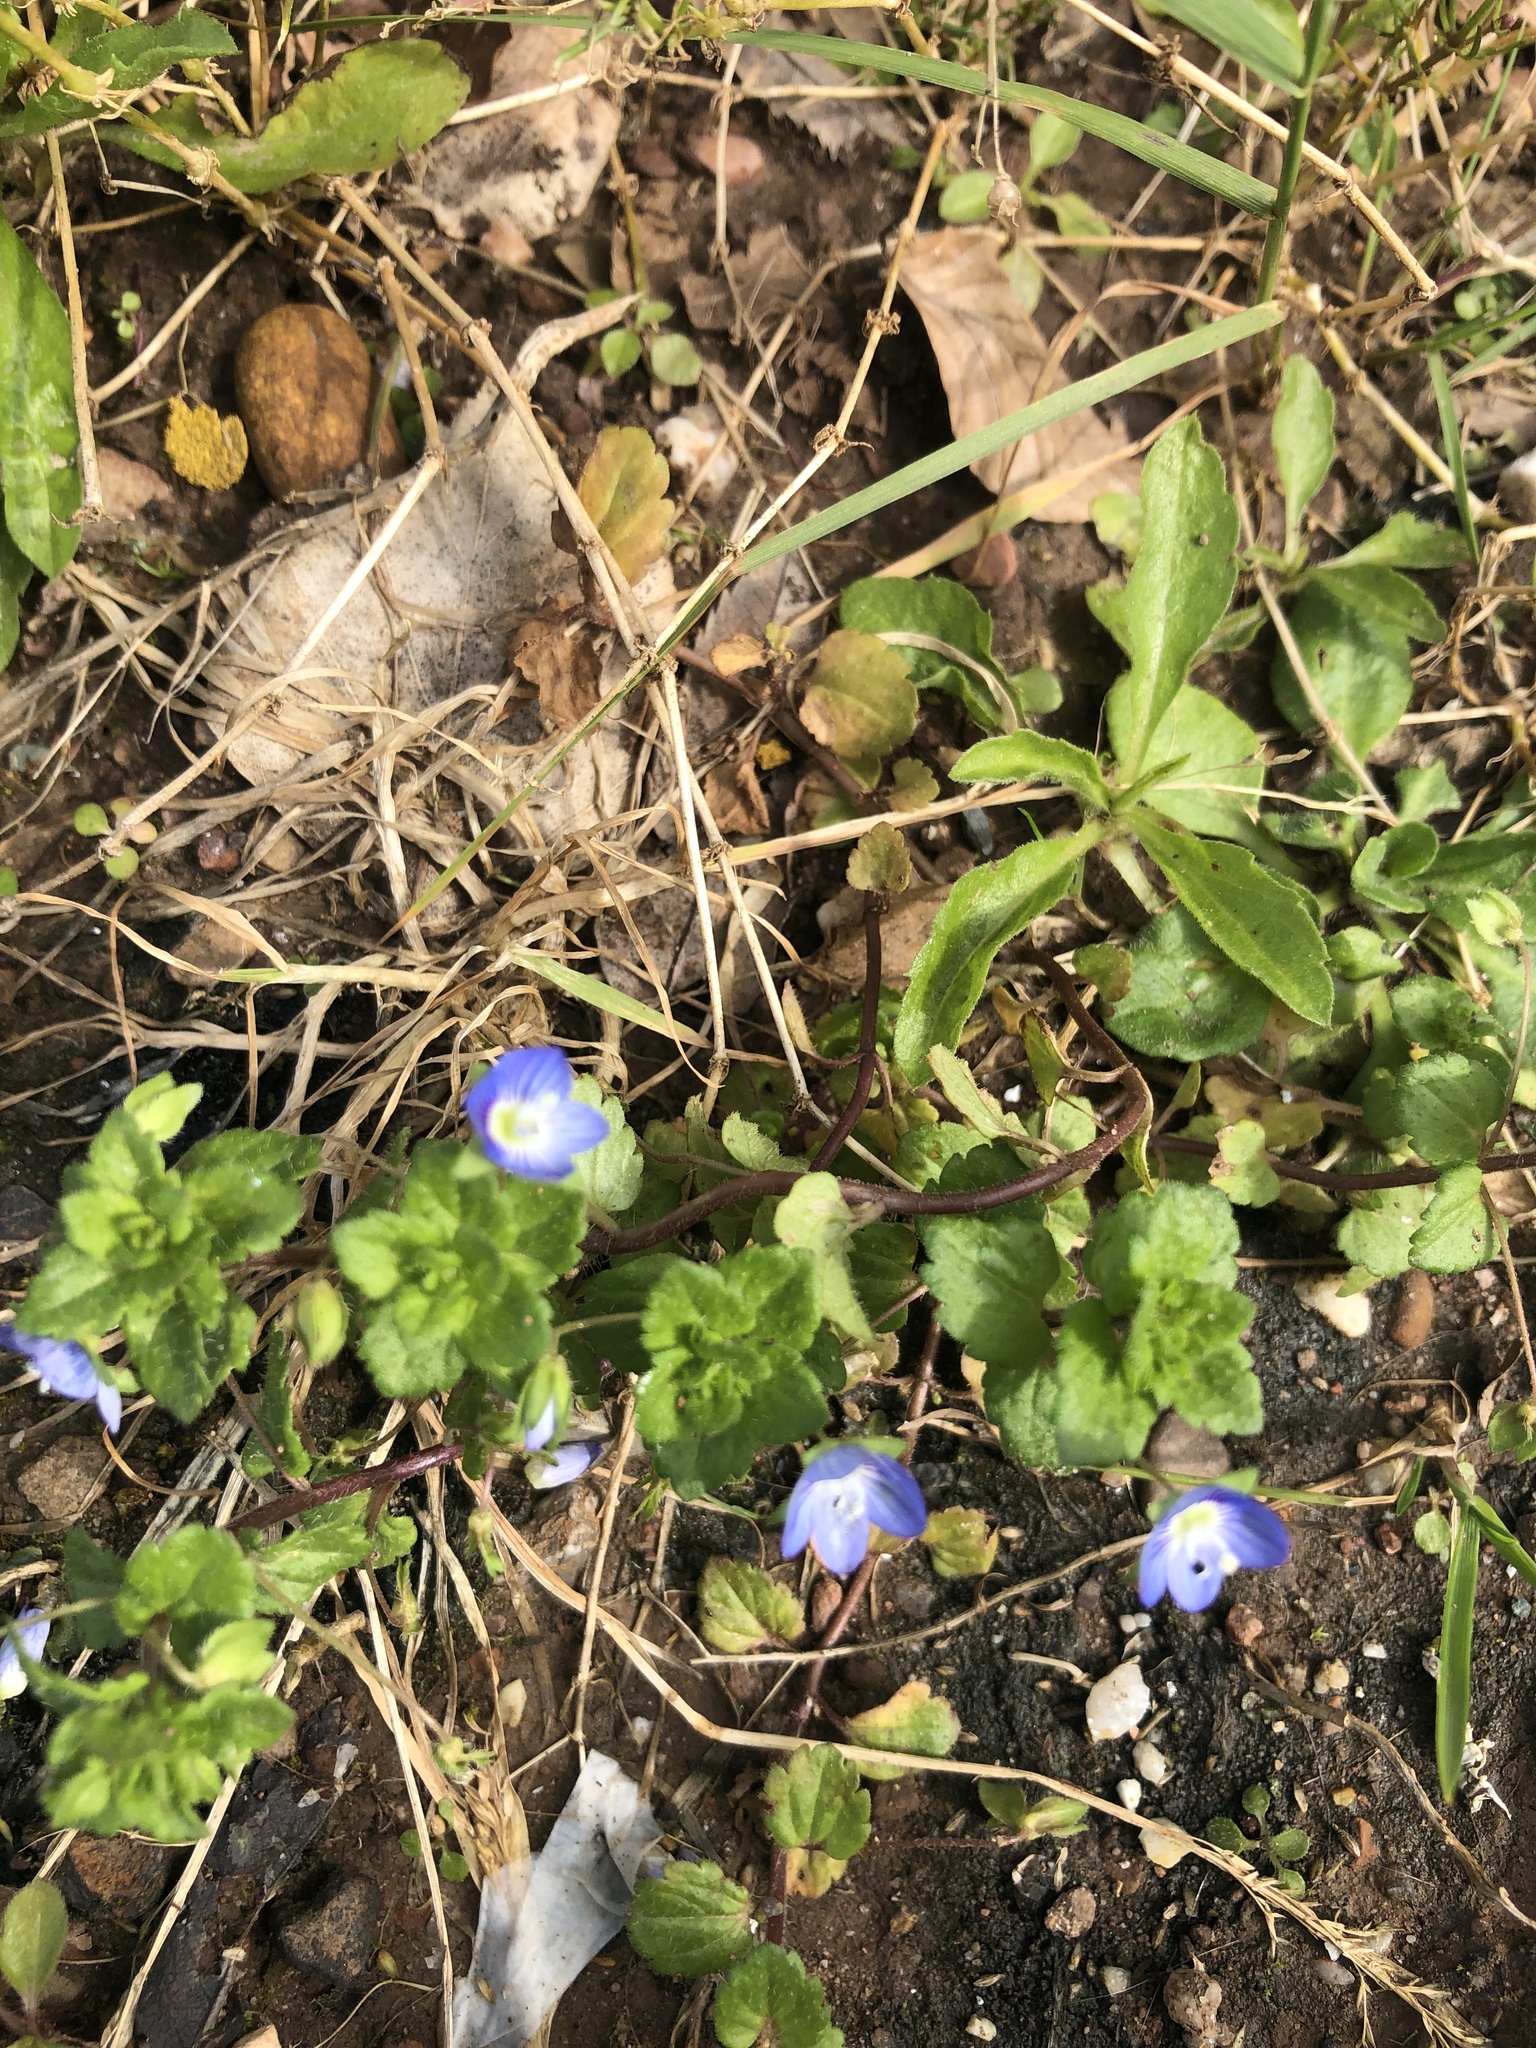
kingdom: Plantae
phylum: Tracheophyta
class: Magnoliopsida
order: Lamiales
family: Plantaginaceae
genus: Veronica
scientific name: Veronica persica
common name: Common field-speedwell
